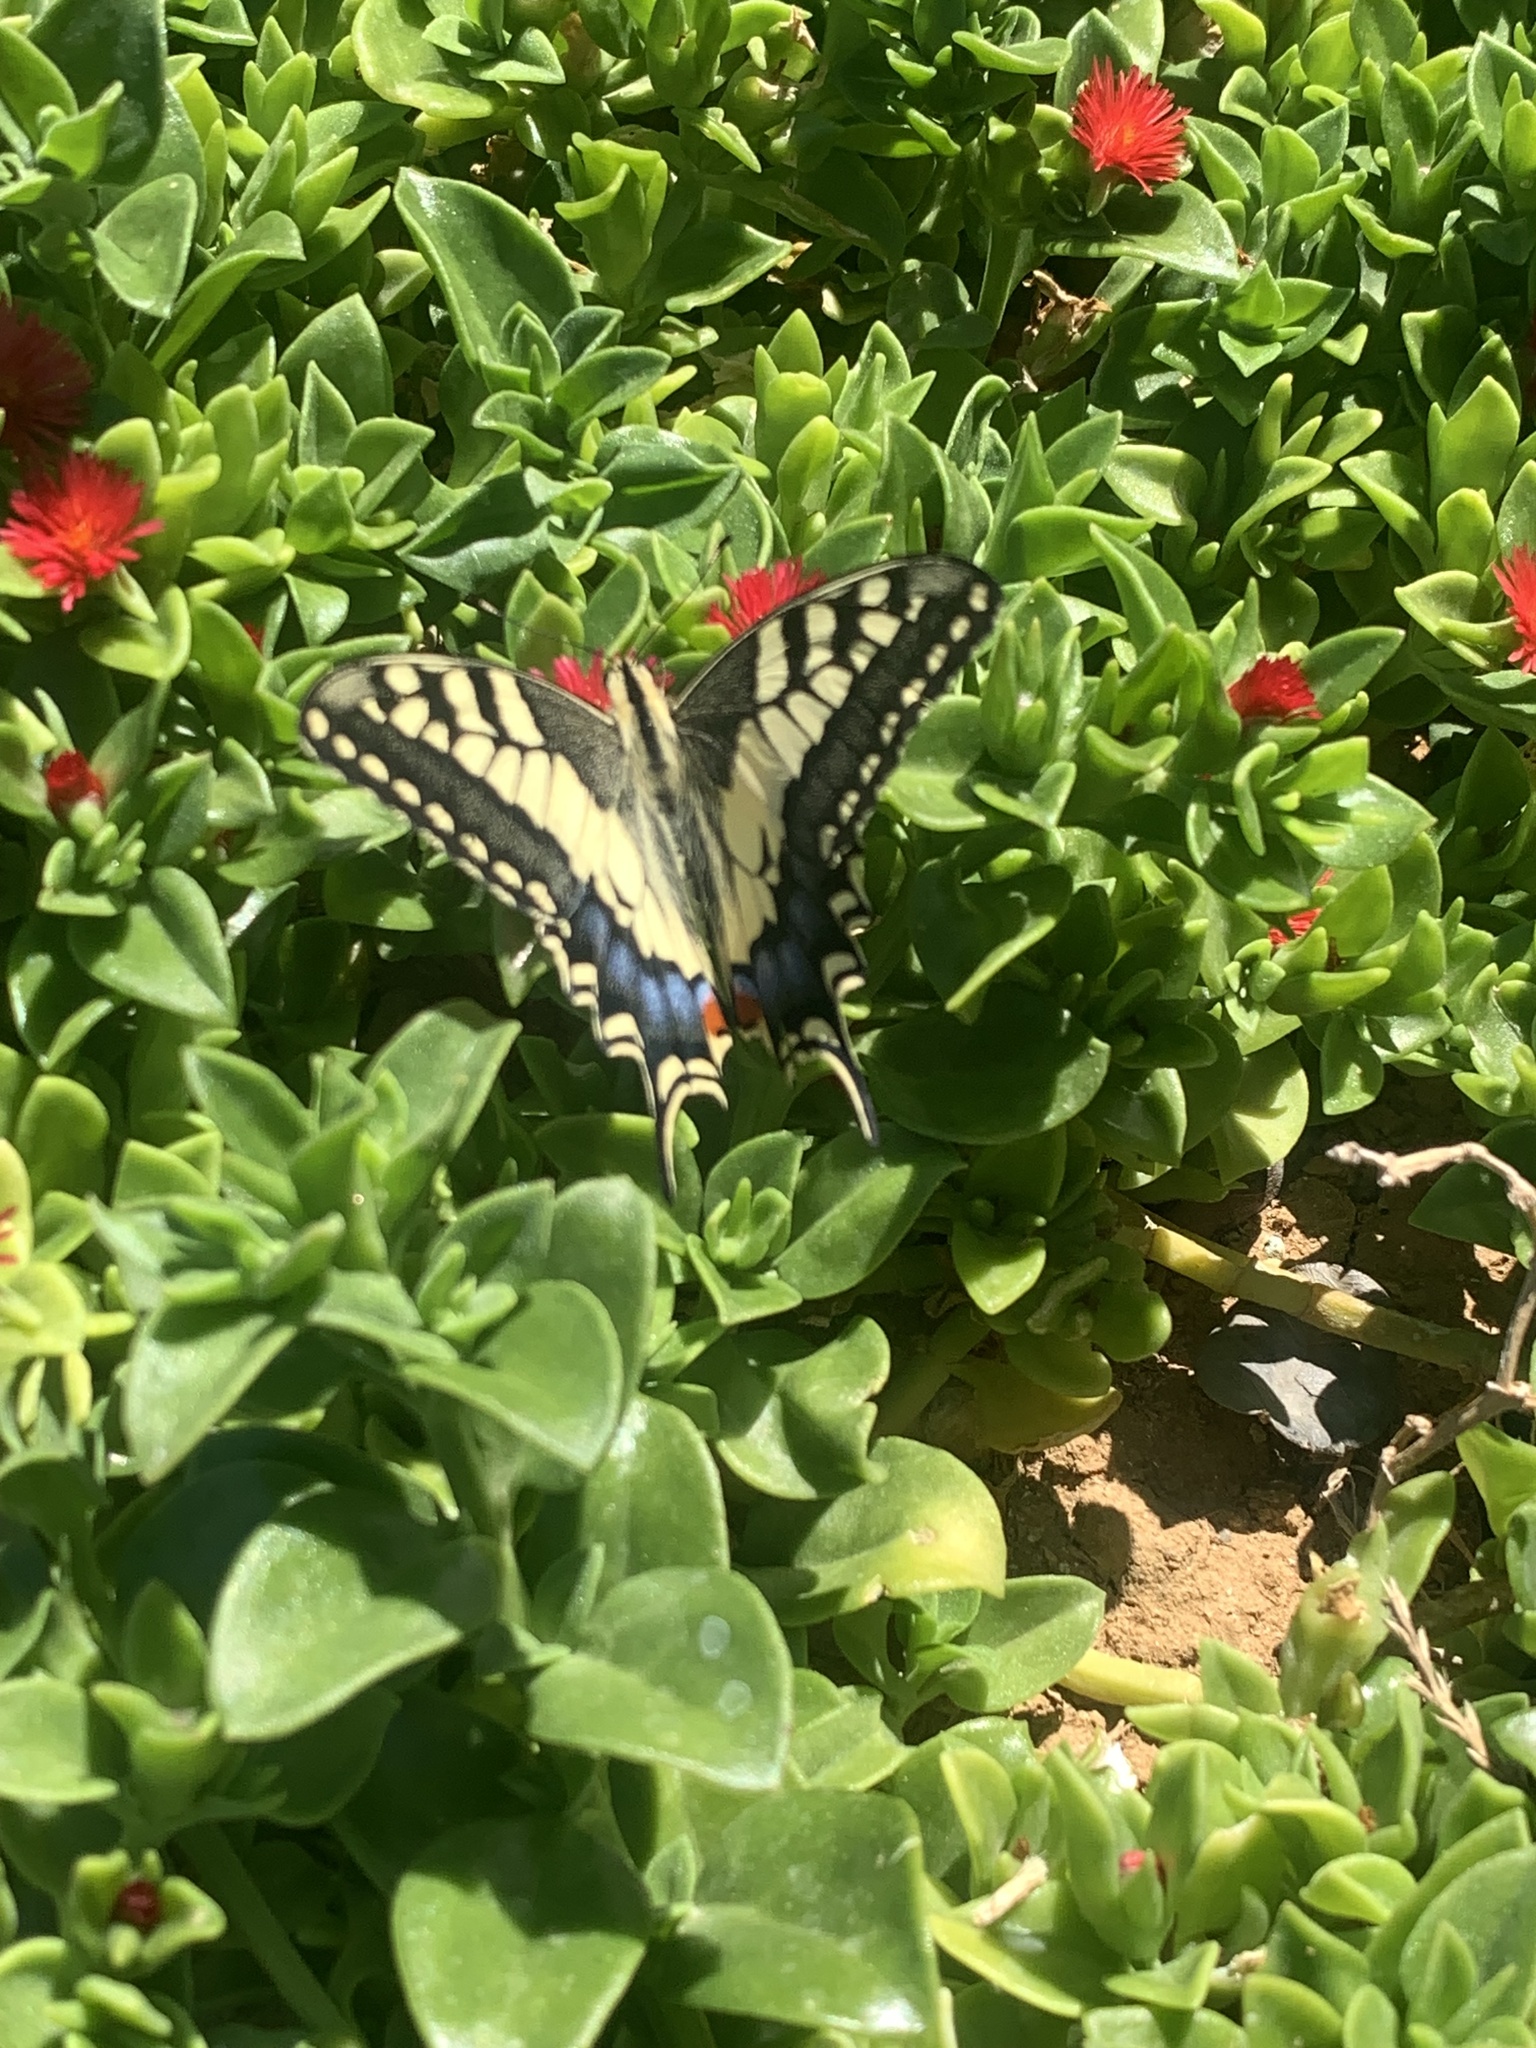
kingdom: Animalia
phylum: Arthropoda
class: Insecta
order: Lepidoptera
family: Papilionidae
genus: Papilio
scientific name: Papilio machaon
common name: Swallowtail
